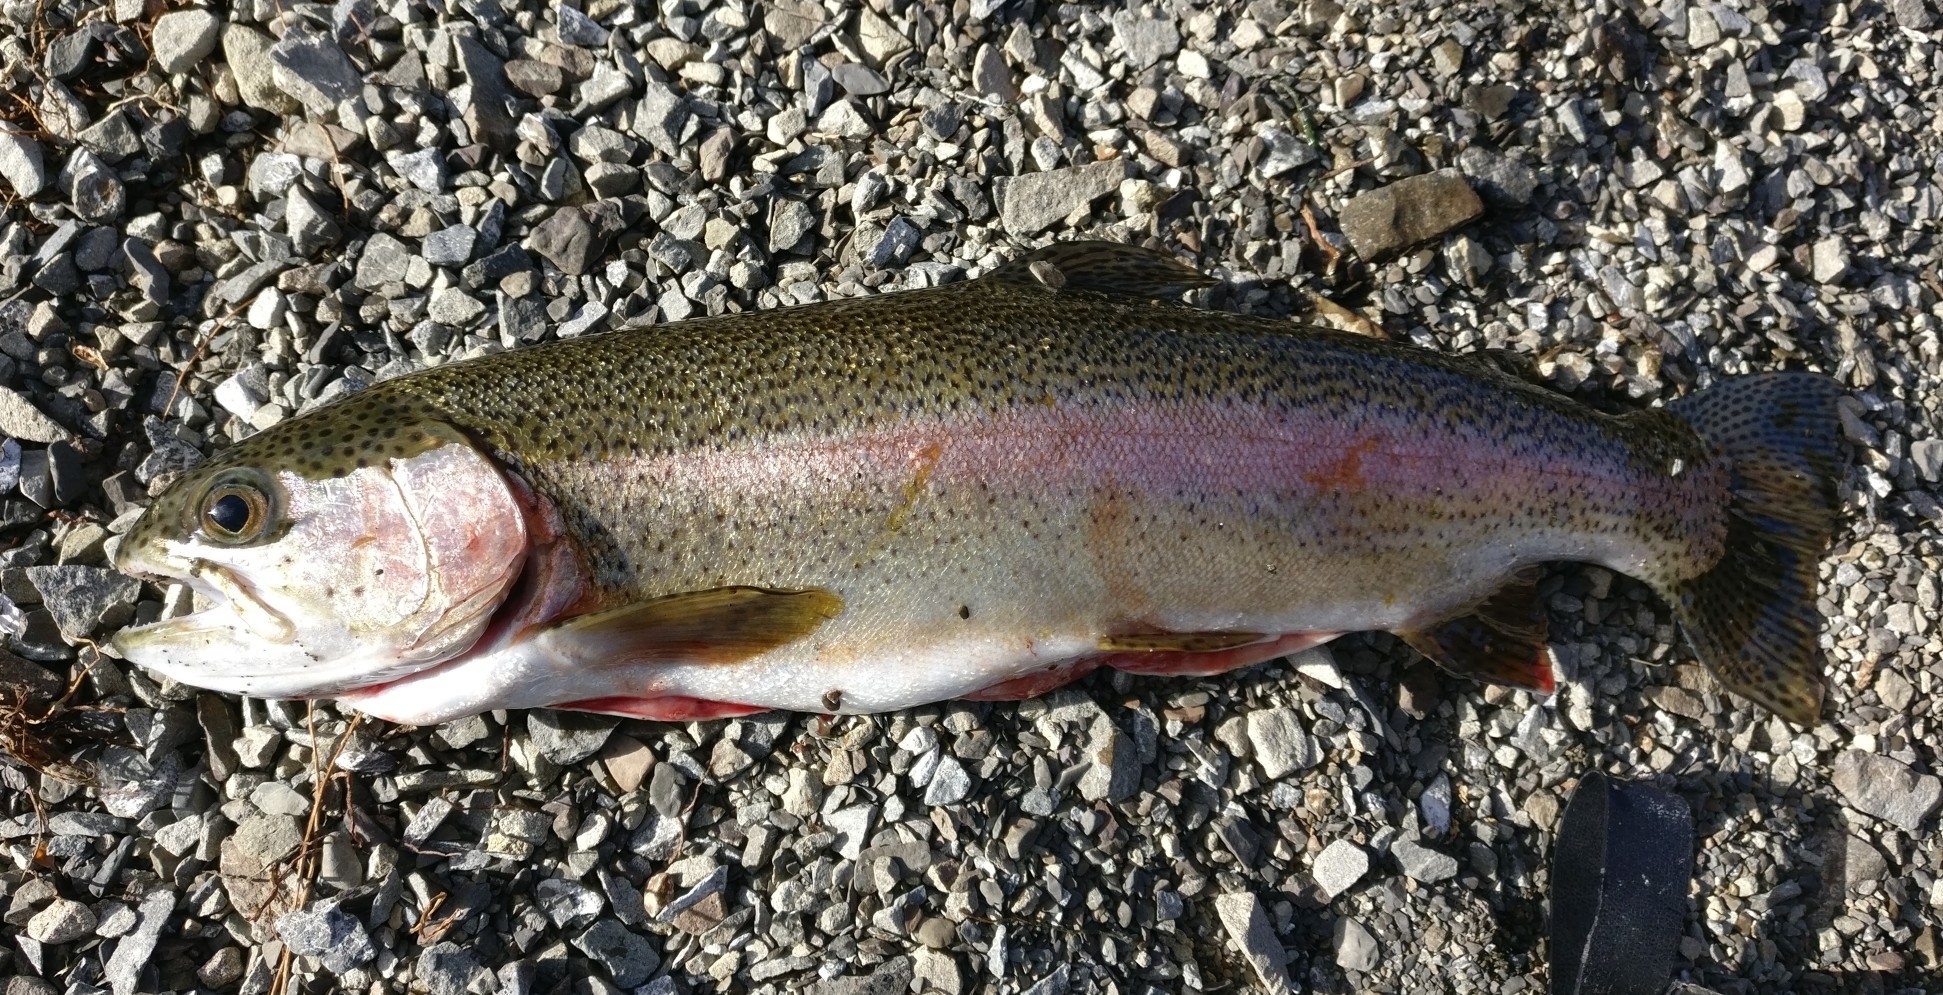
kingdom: Animalia
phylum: Chordata
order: Salmoniformes
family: Salmonidae
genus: Oncorhynchus
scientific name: Oncorhynchus mykiss
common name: Rainbow trout
